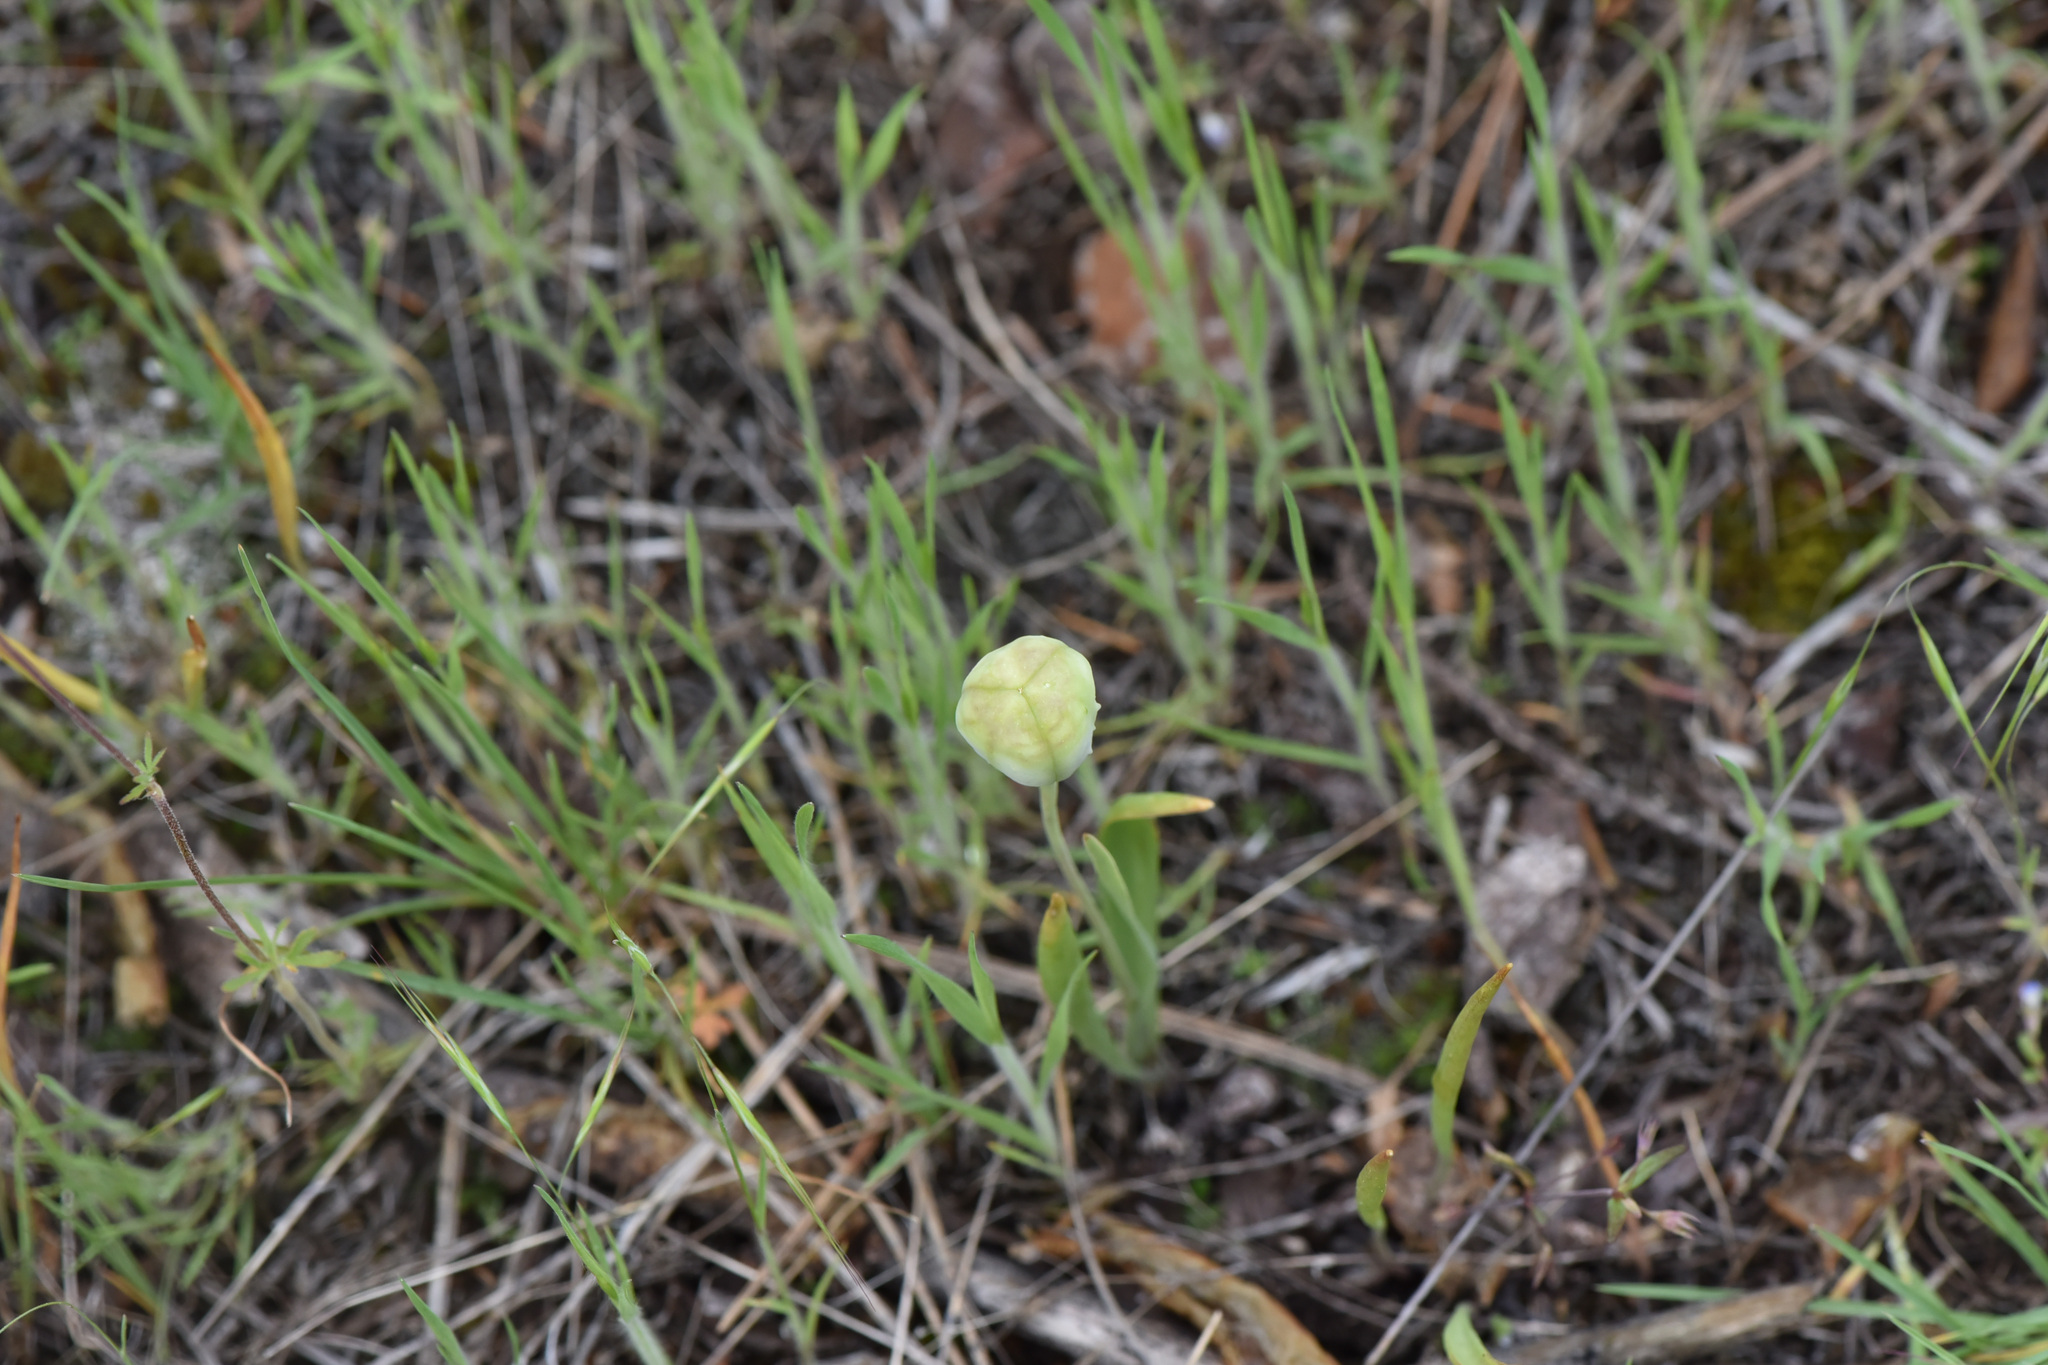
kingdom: Plantae
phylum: Tracheophyta
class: Liliopsida
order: Liliales
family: Liliaceae
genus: Fritillaria
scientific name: Fritillaria pudica
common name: Yellow fritillary
